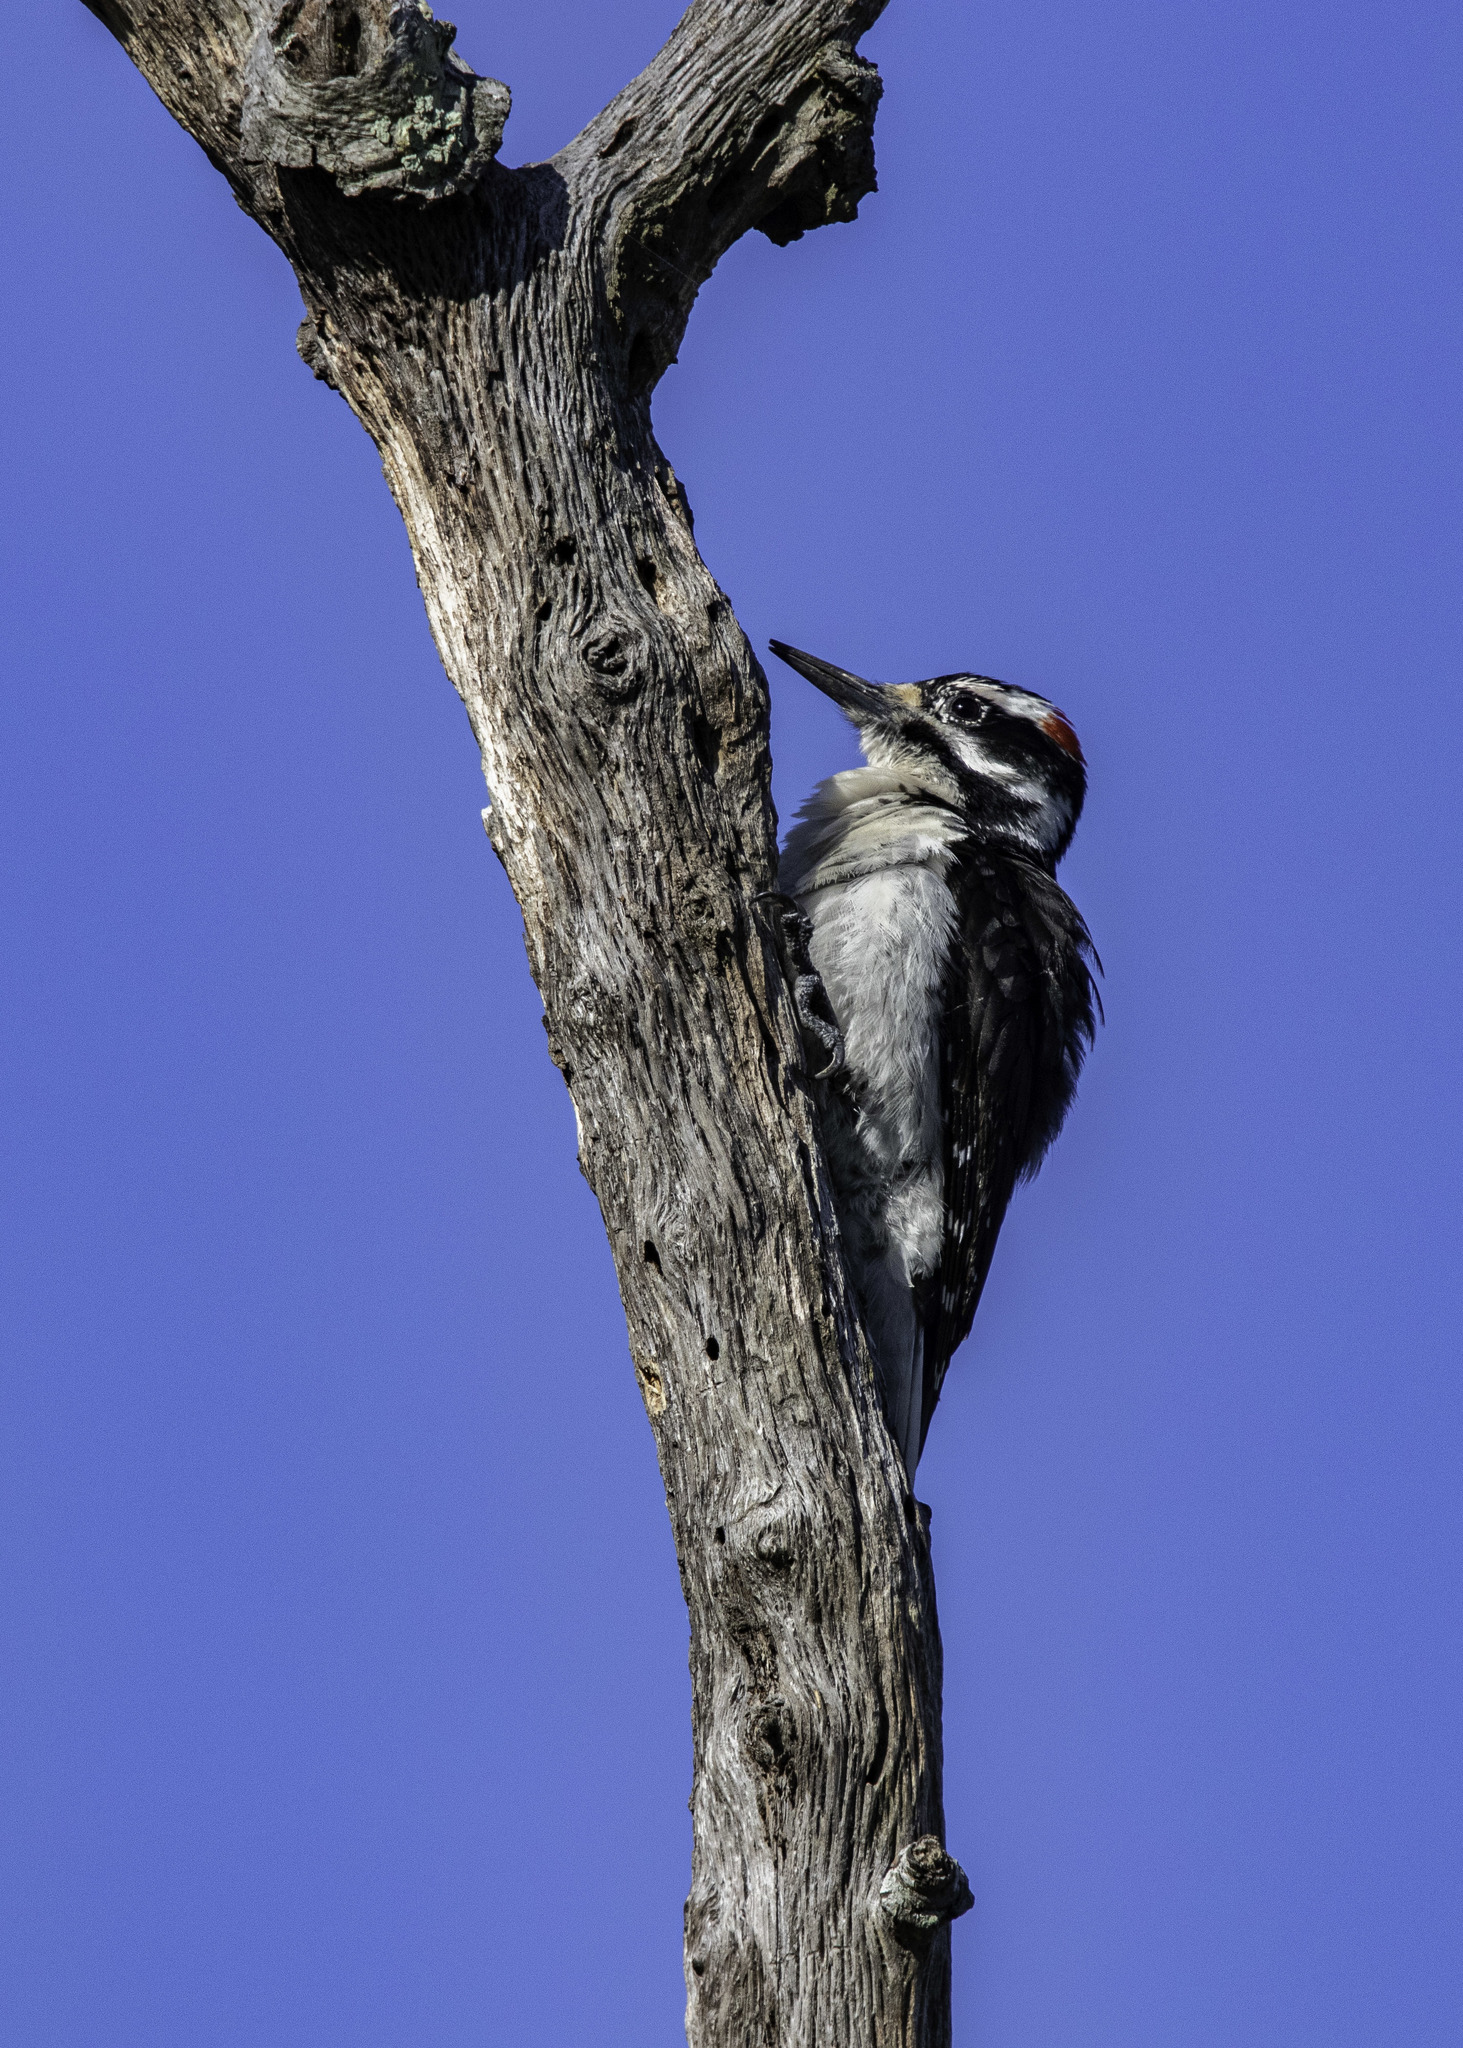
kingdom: Animalia
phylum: Chordata
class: Aves
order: Piciformes
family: Picidae
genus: Leuconotopicus
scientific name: Leuconotopicus villosus
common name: Hairy woodpecker
